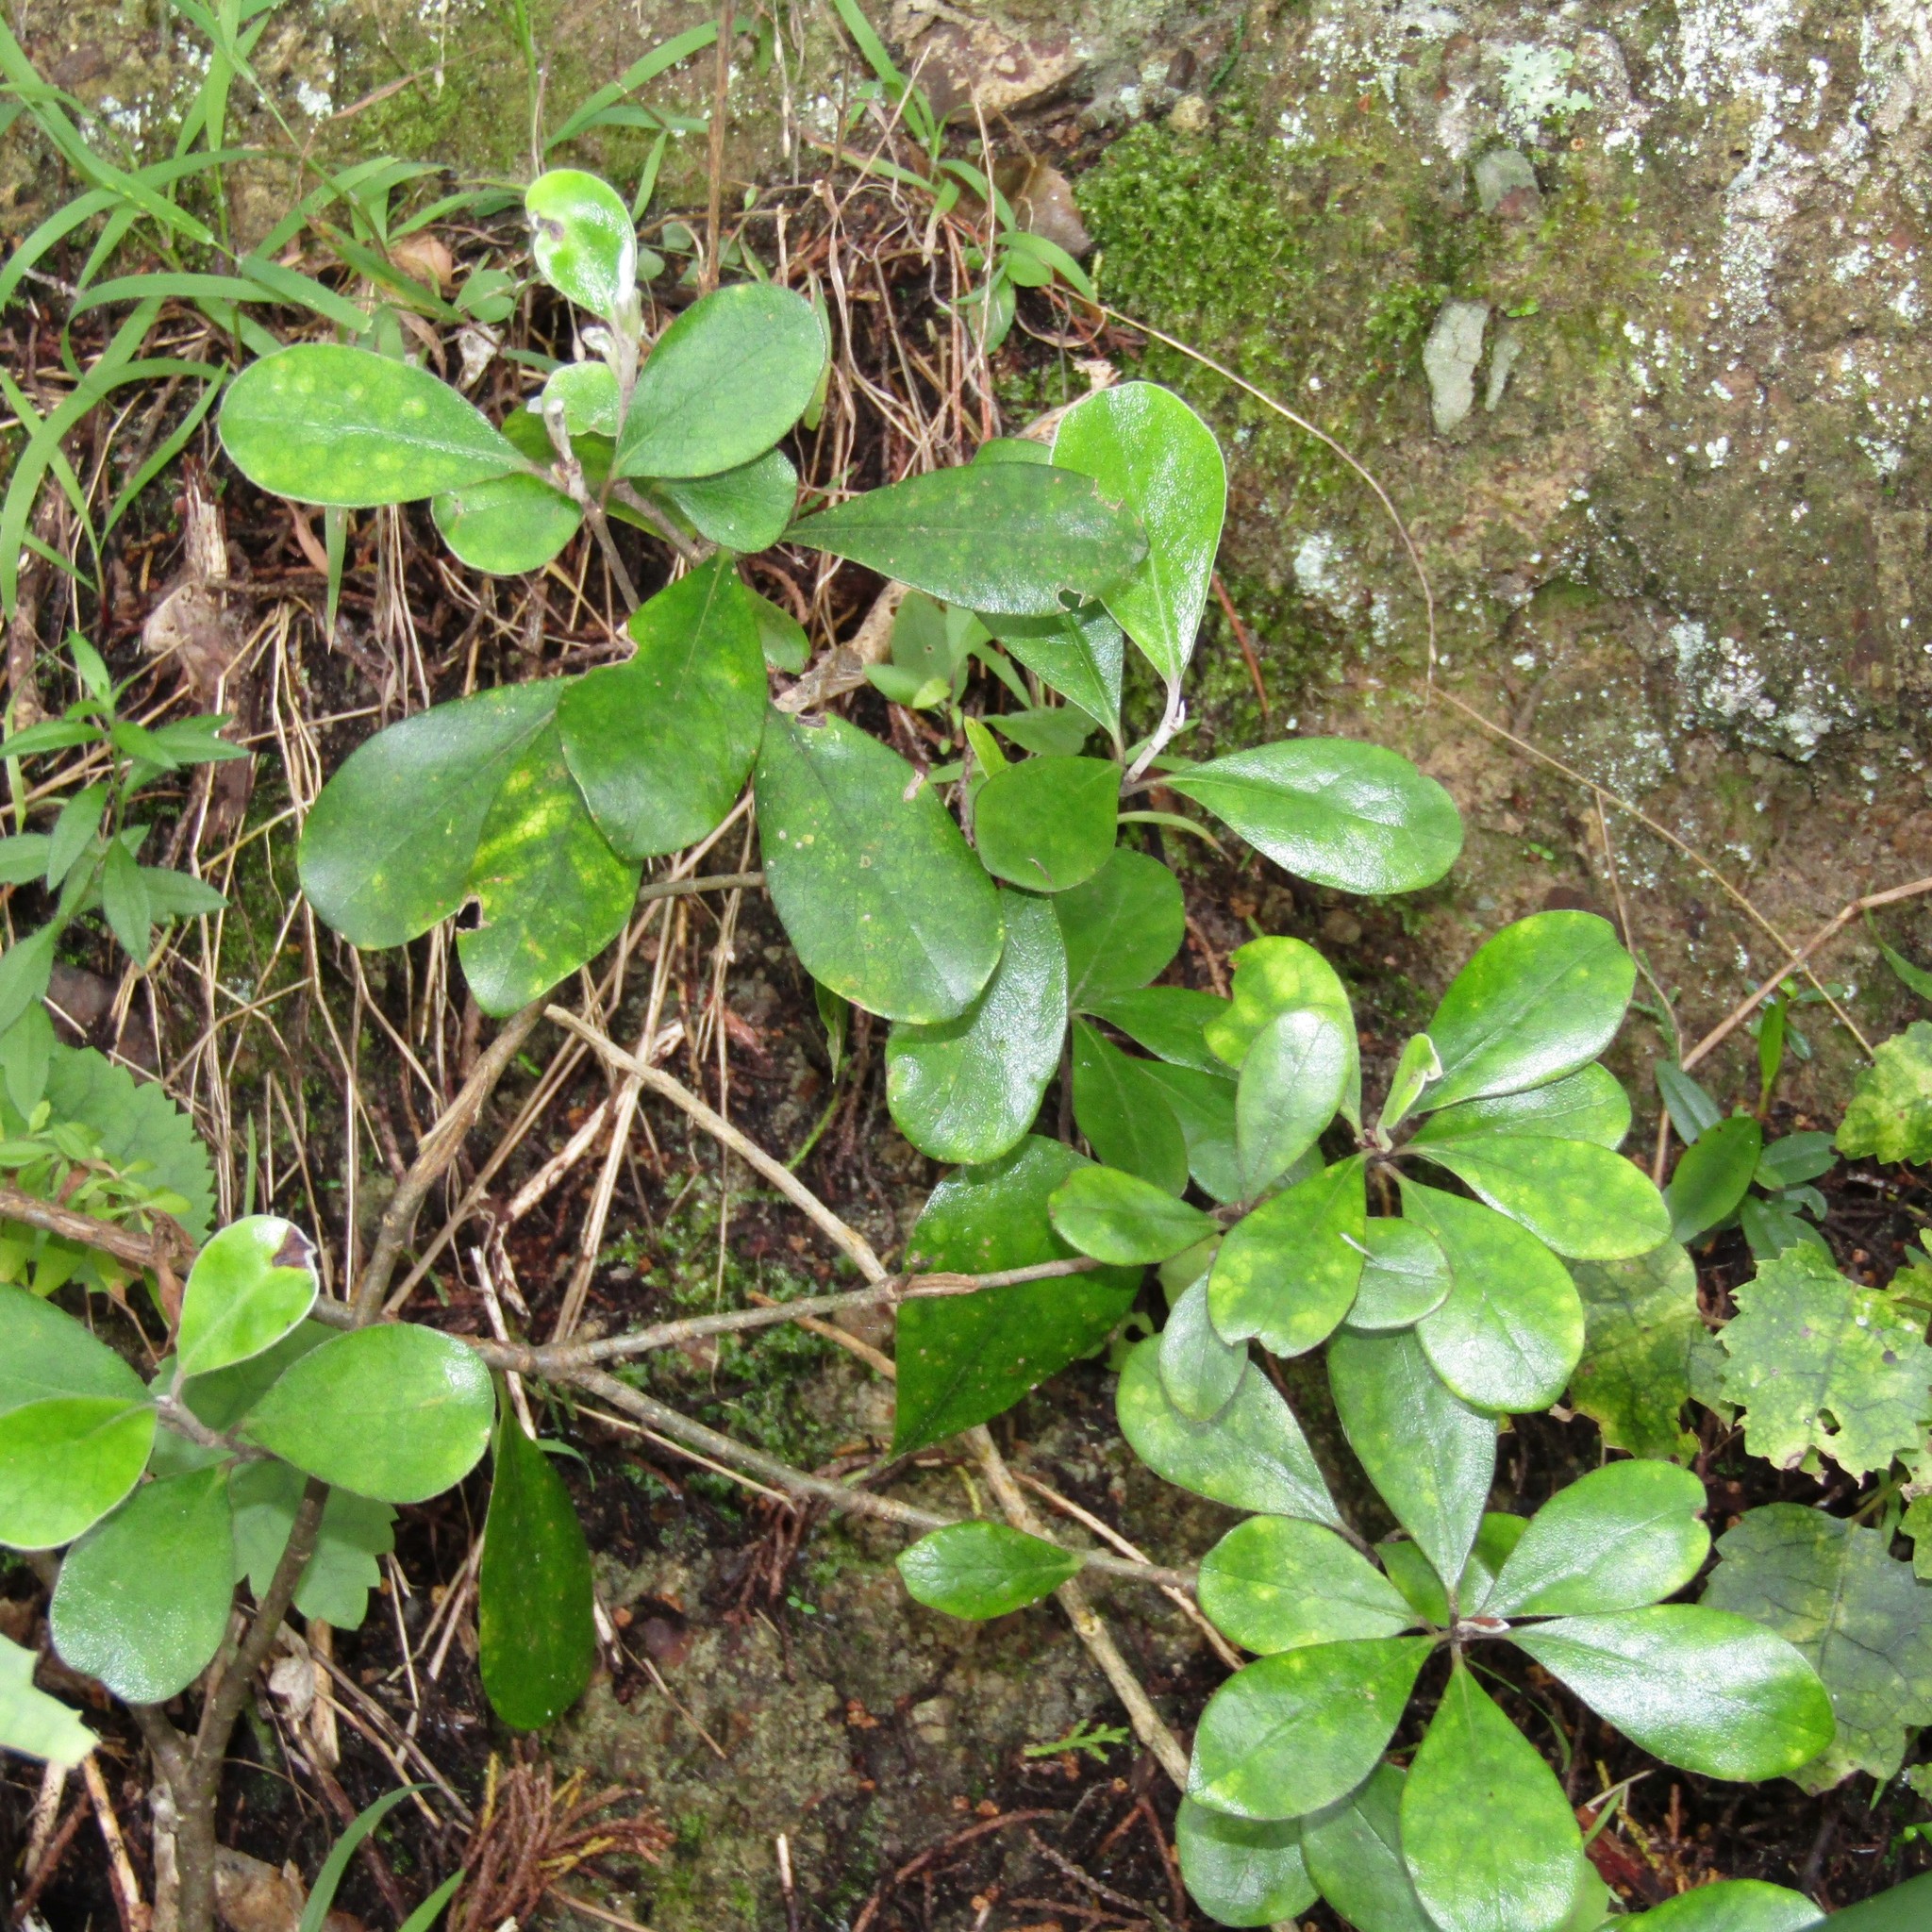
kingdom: Plantae
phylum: Tracheophyta
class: Magnoliopsida
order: Apiales
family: Pittosporaceae
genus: Pittosporum
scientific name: Pittosporum crassifolium
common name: Karo
